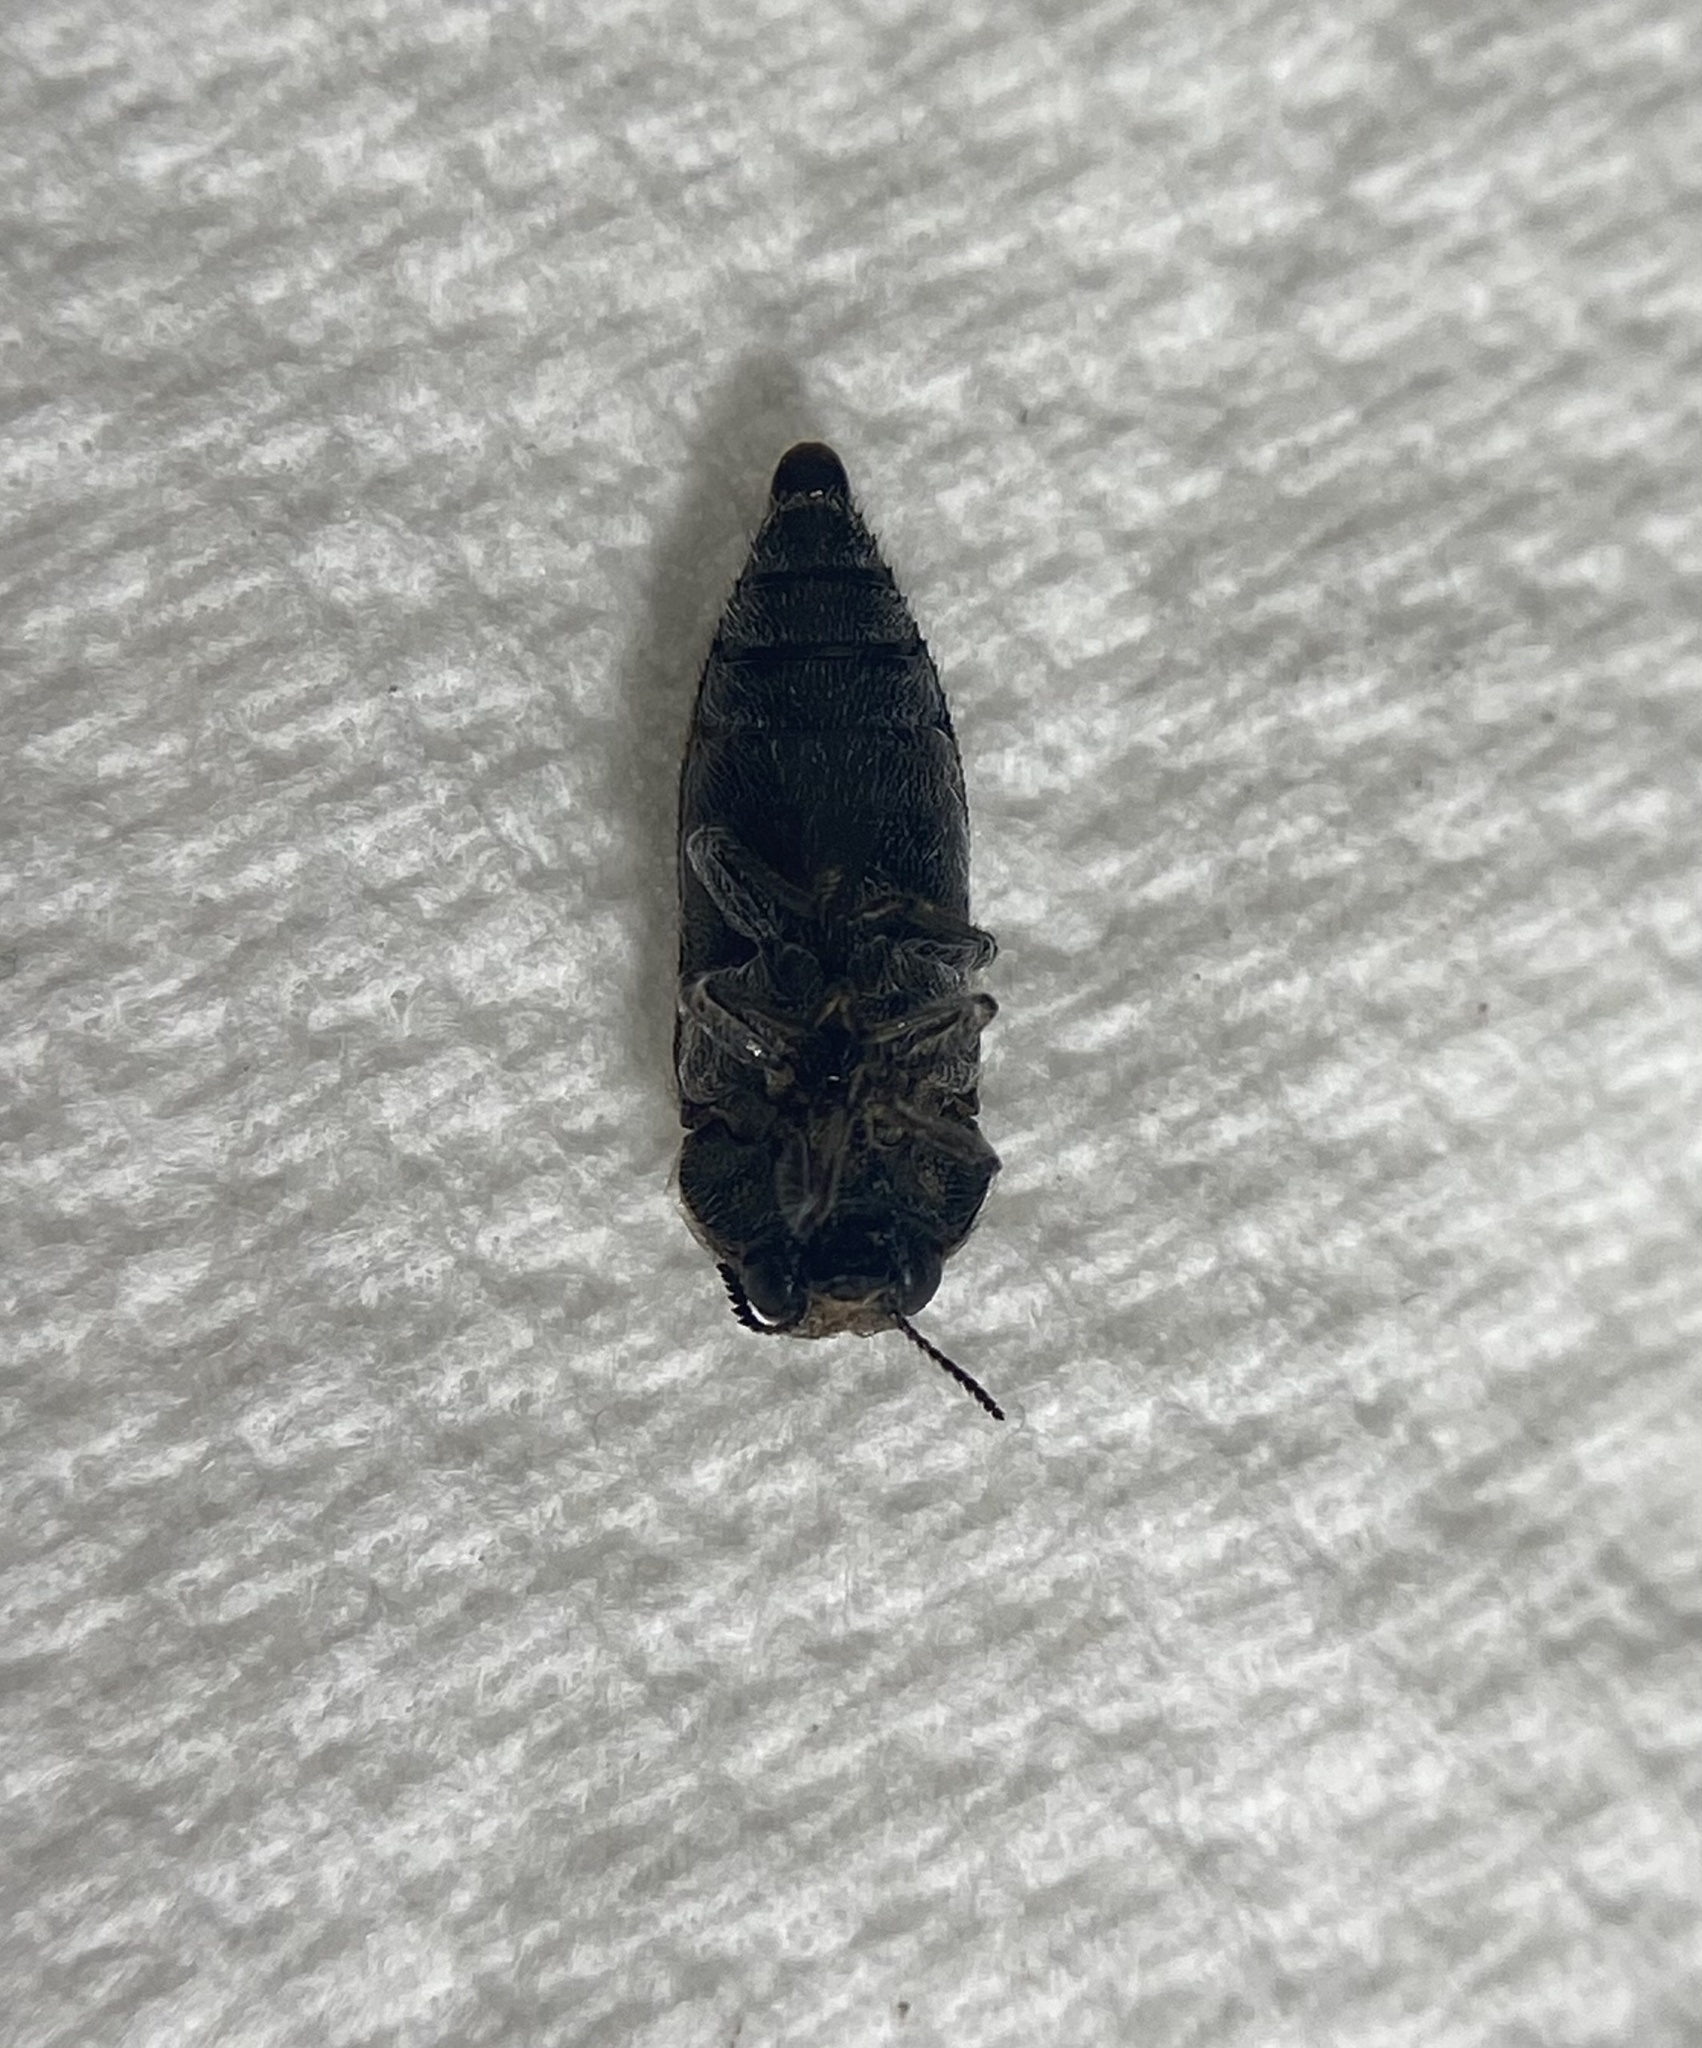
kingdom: Animalia
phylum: Arthropoda
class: Insecta
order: Coleoptera
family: Buprestidae
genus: Acmaeodera
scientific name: Acmaeodera bowditchi
